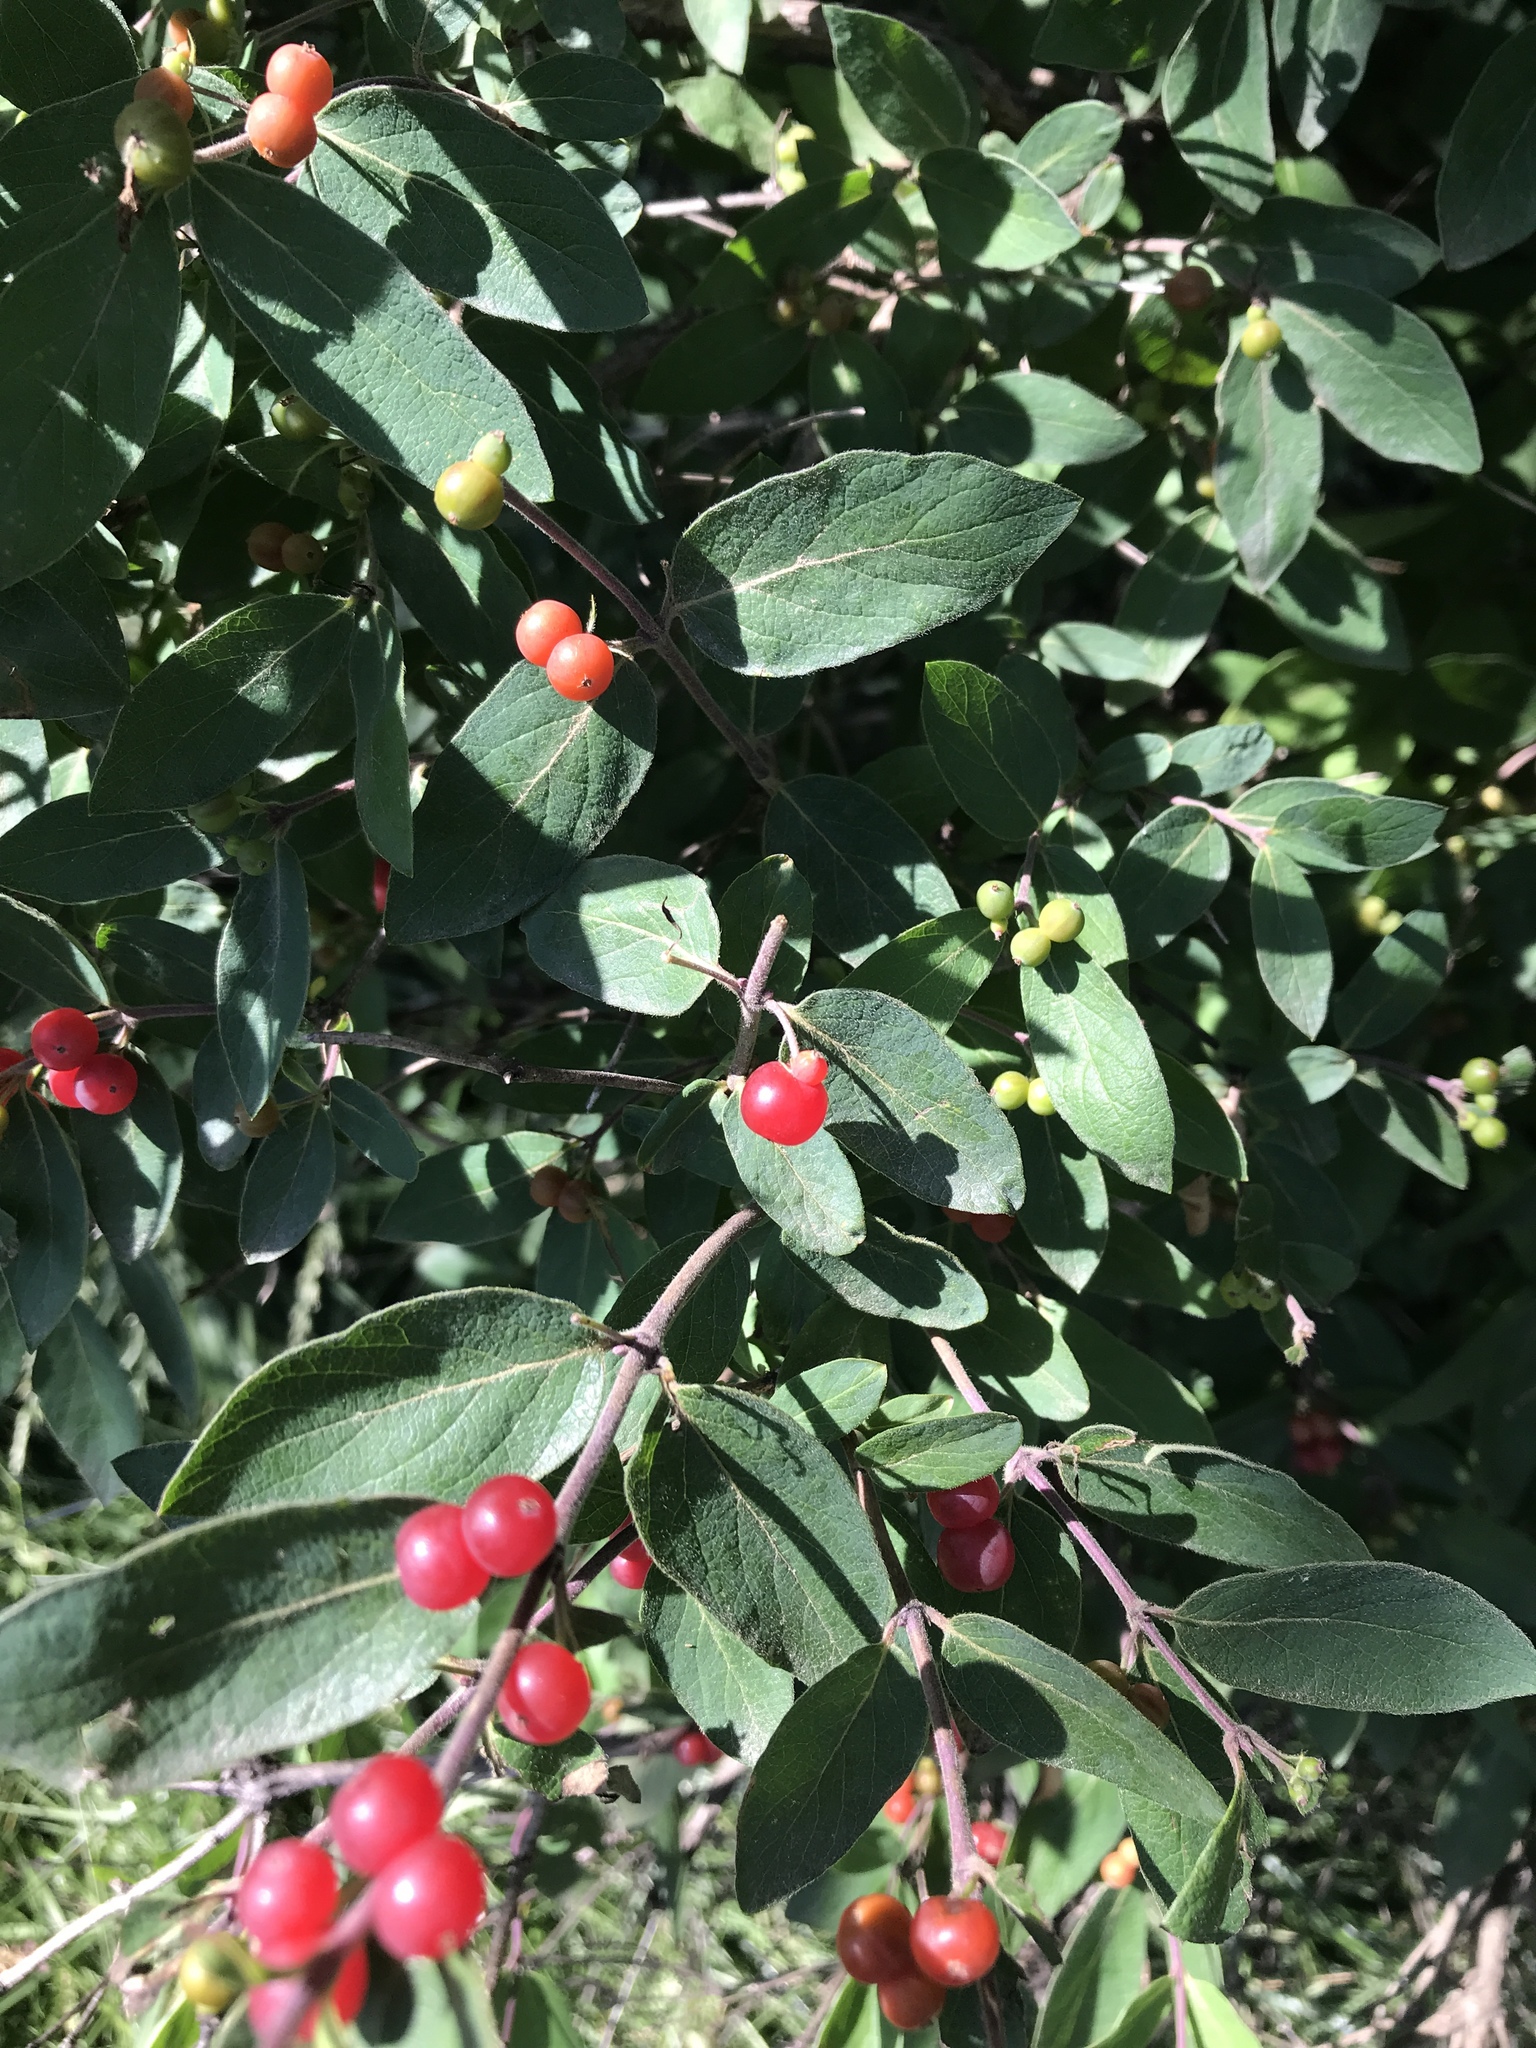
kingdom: Plantae
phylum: Tracheophyta
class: Magnoliopsida
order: Dipsacales
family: Caprifoliaceae
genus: Lonicera
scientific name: Lonicera morrowii
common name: Morrow's honeysuckle
